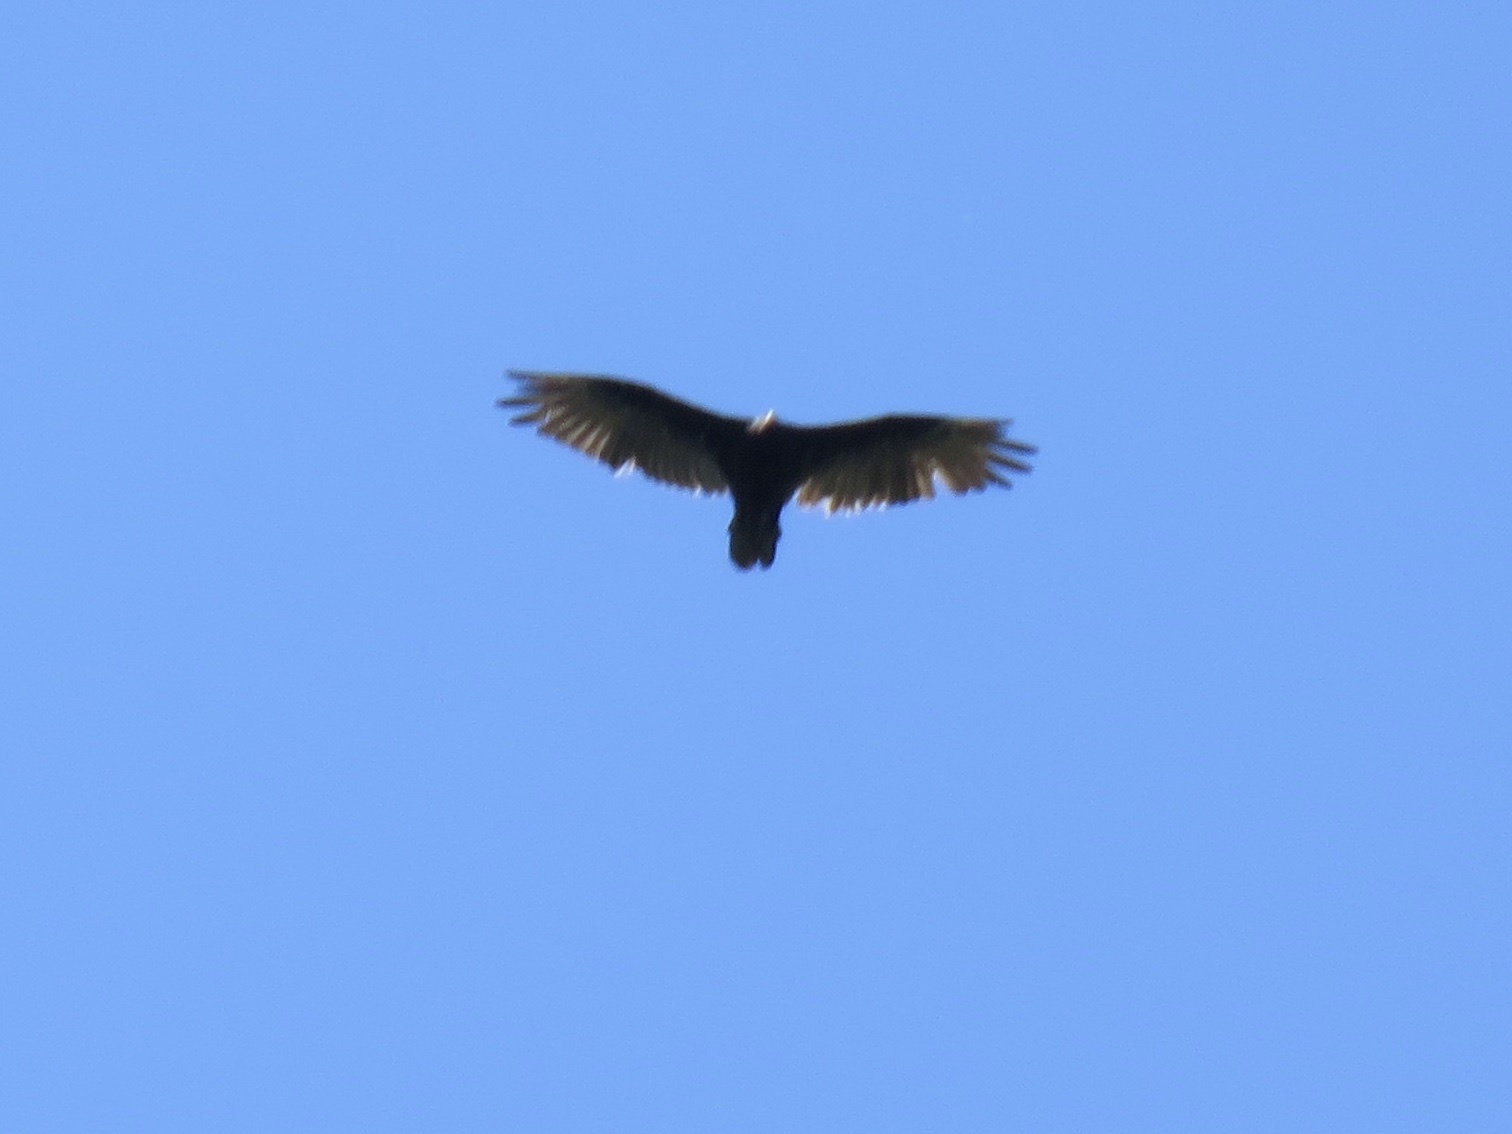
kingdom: Animalia
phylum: Chordata
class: Aves
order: Accipitriformes
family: Cathartidae
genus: Cathartes
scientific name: Cathartes aura
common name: Turkey vulture
